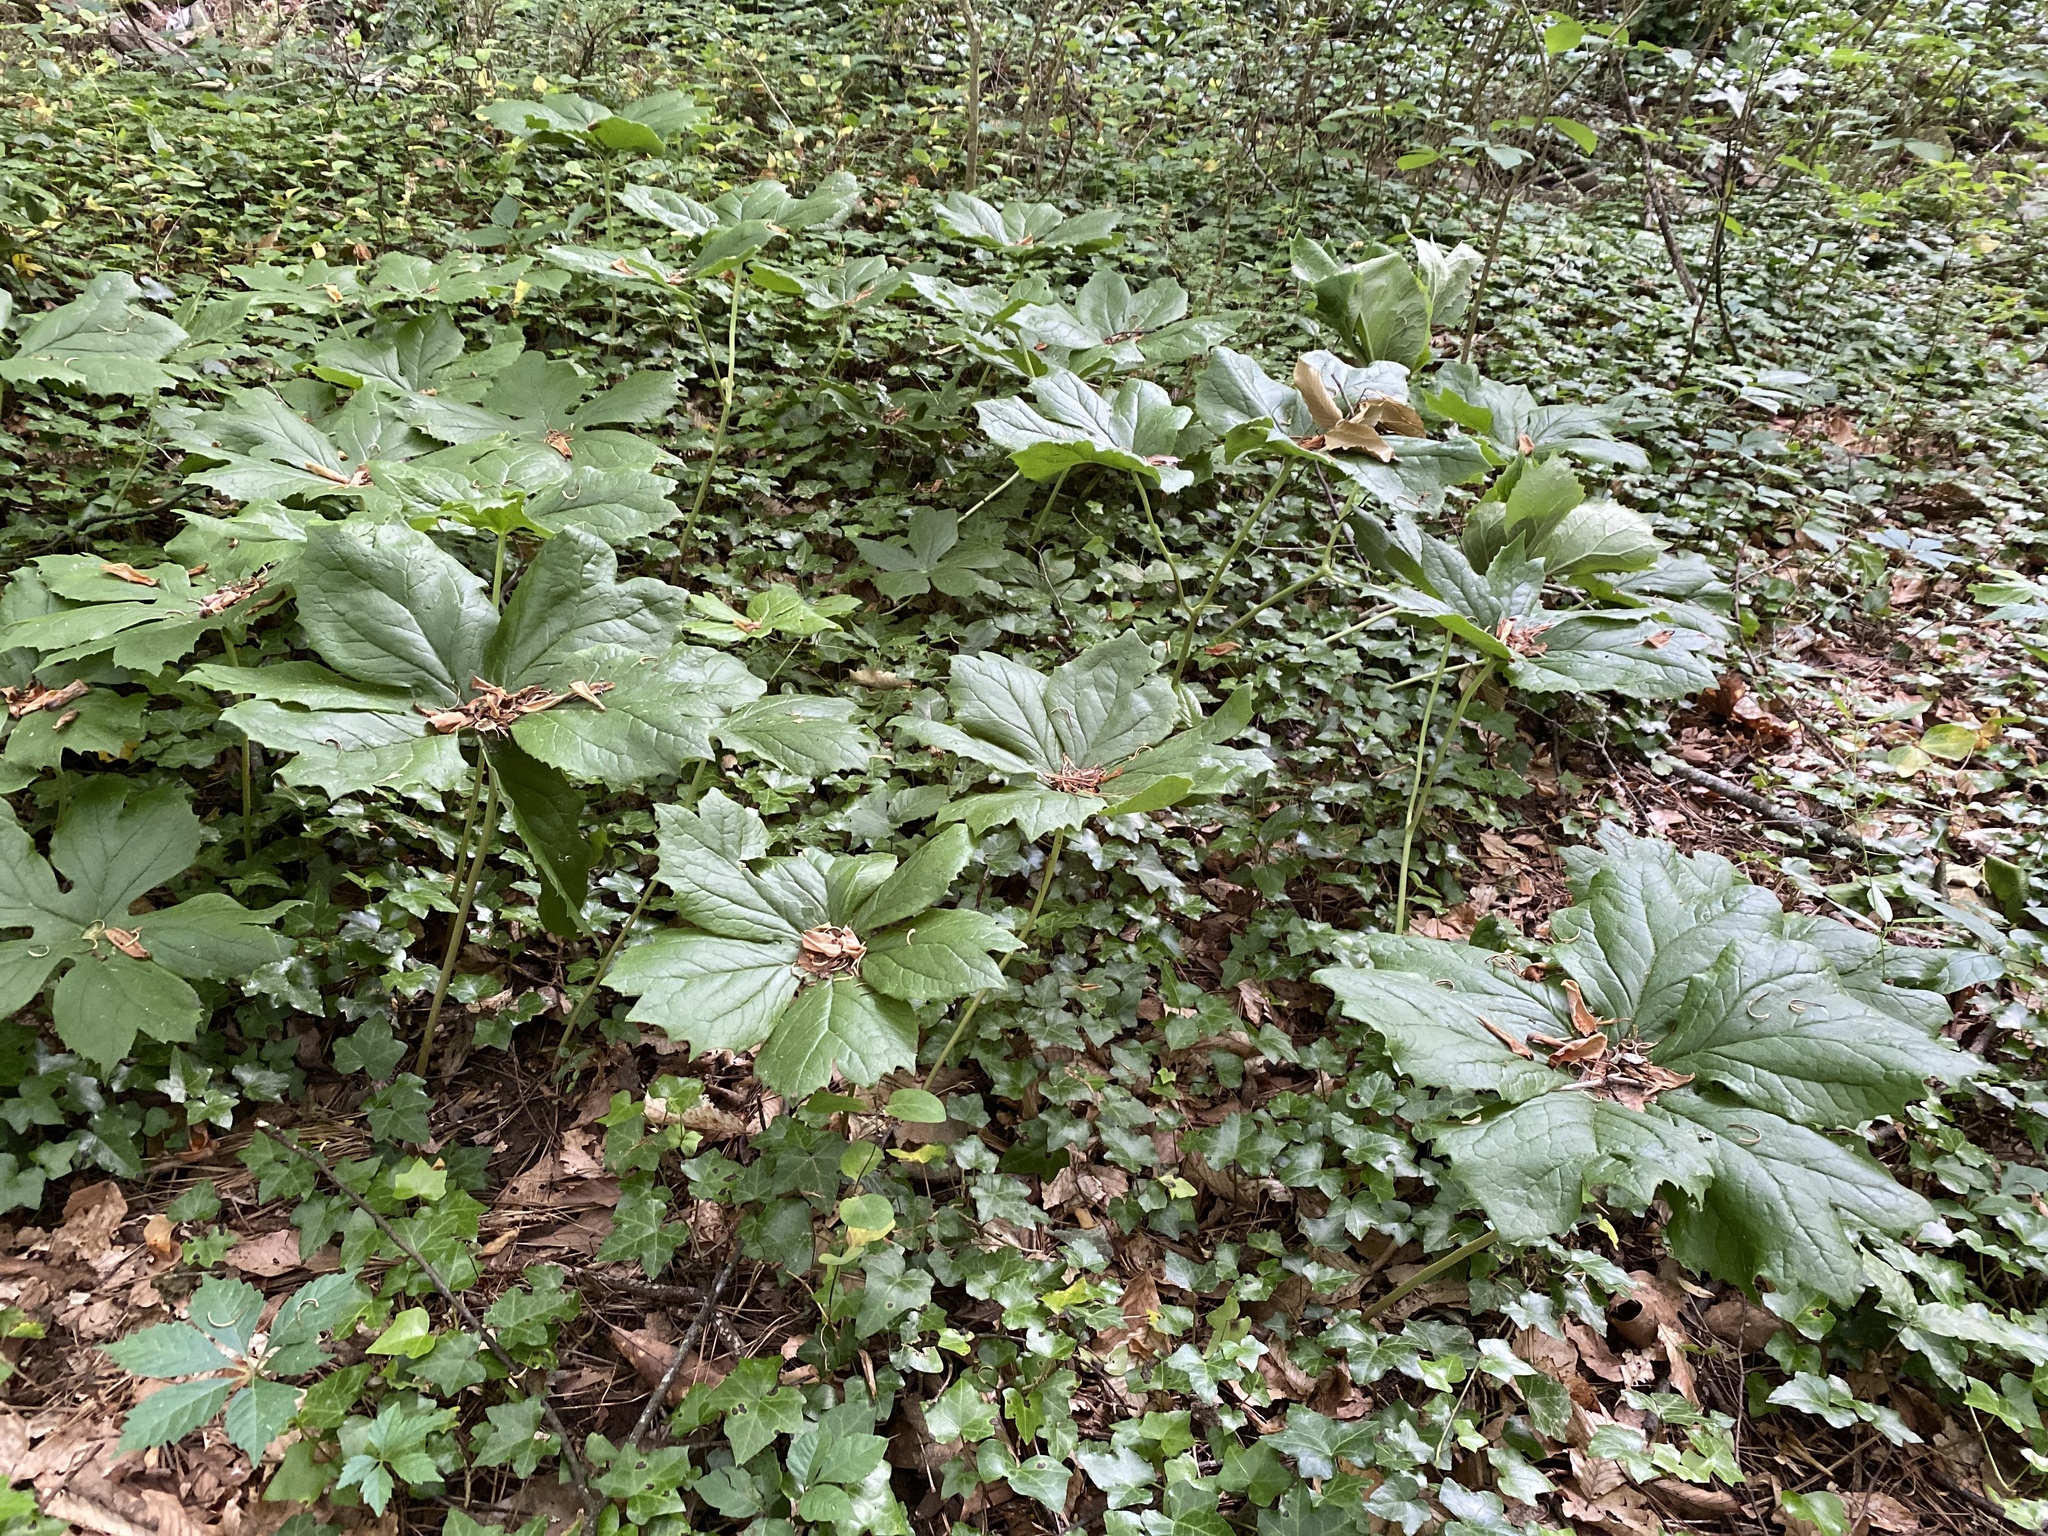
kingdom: Plantae
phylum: Tracheophyta
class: Magnoliopsida
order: Ranunculales
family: Berberidaceae
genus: Podophyllum
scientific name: Podophyllum peltatum
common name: Wild mandrake
